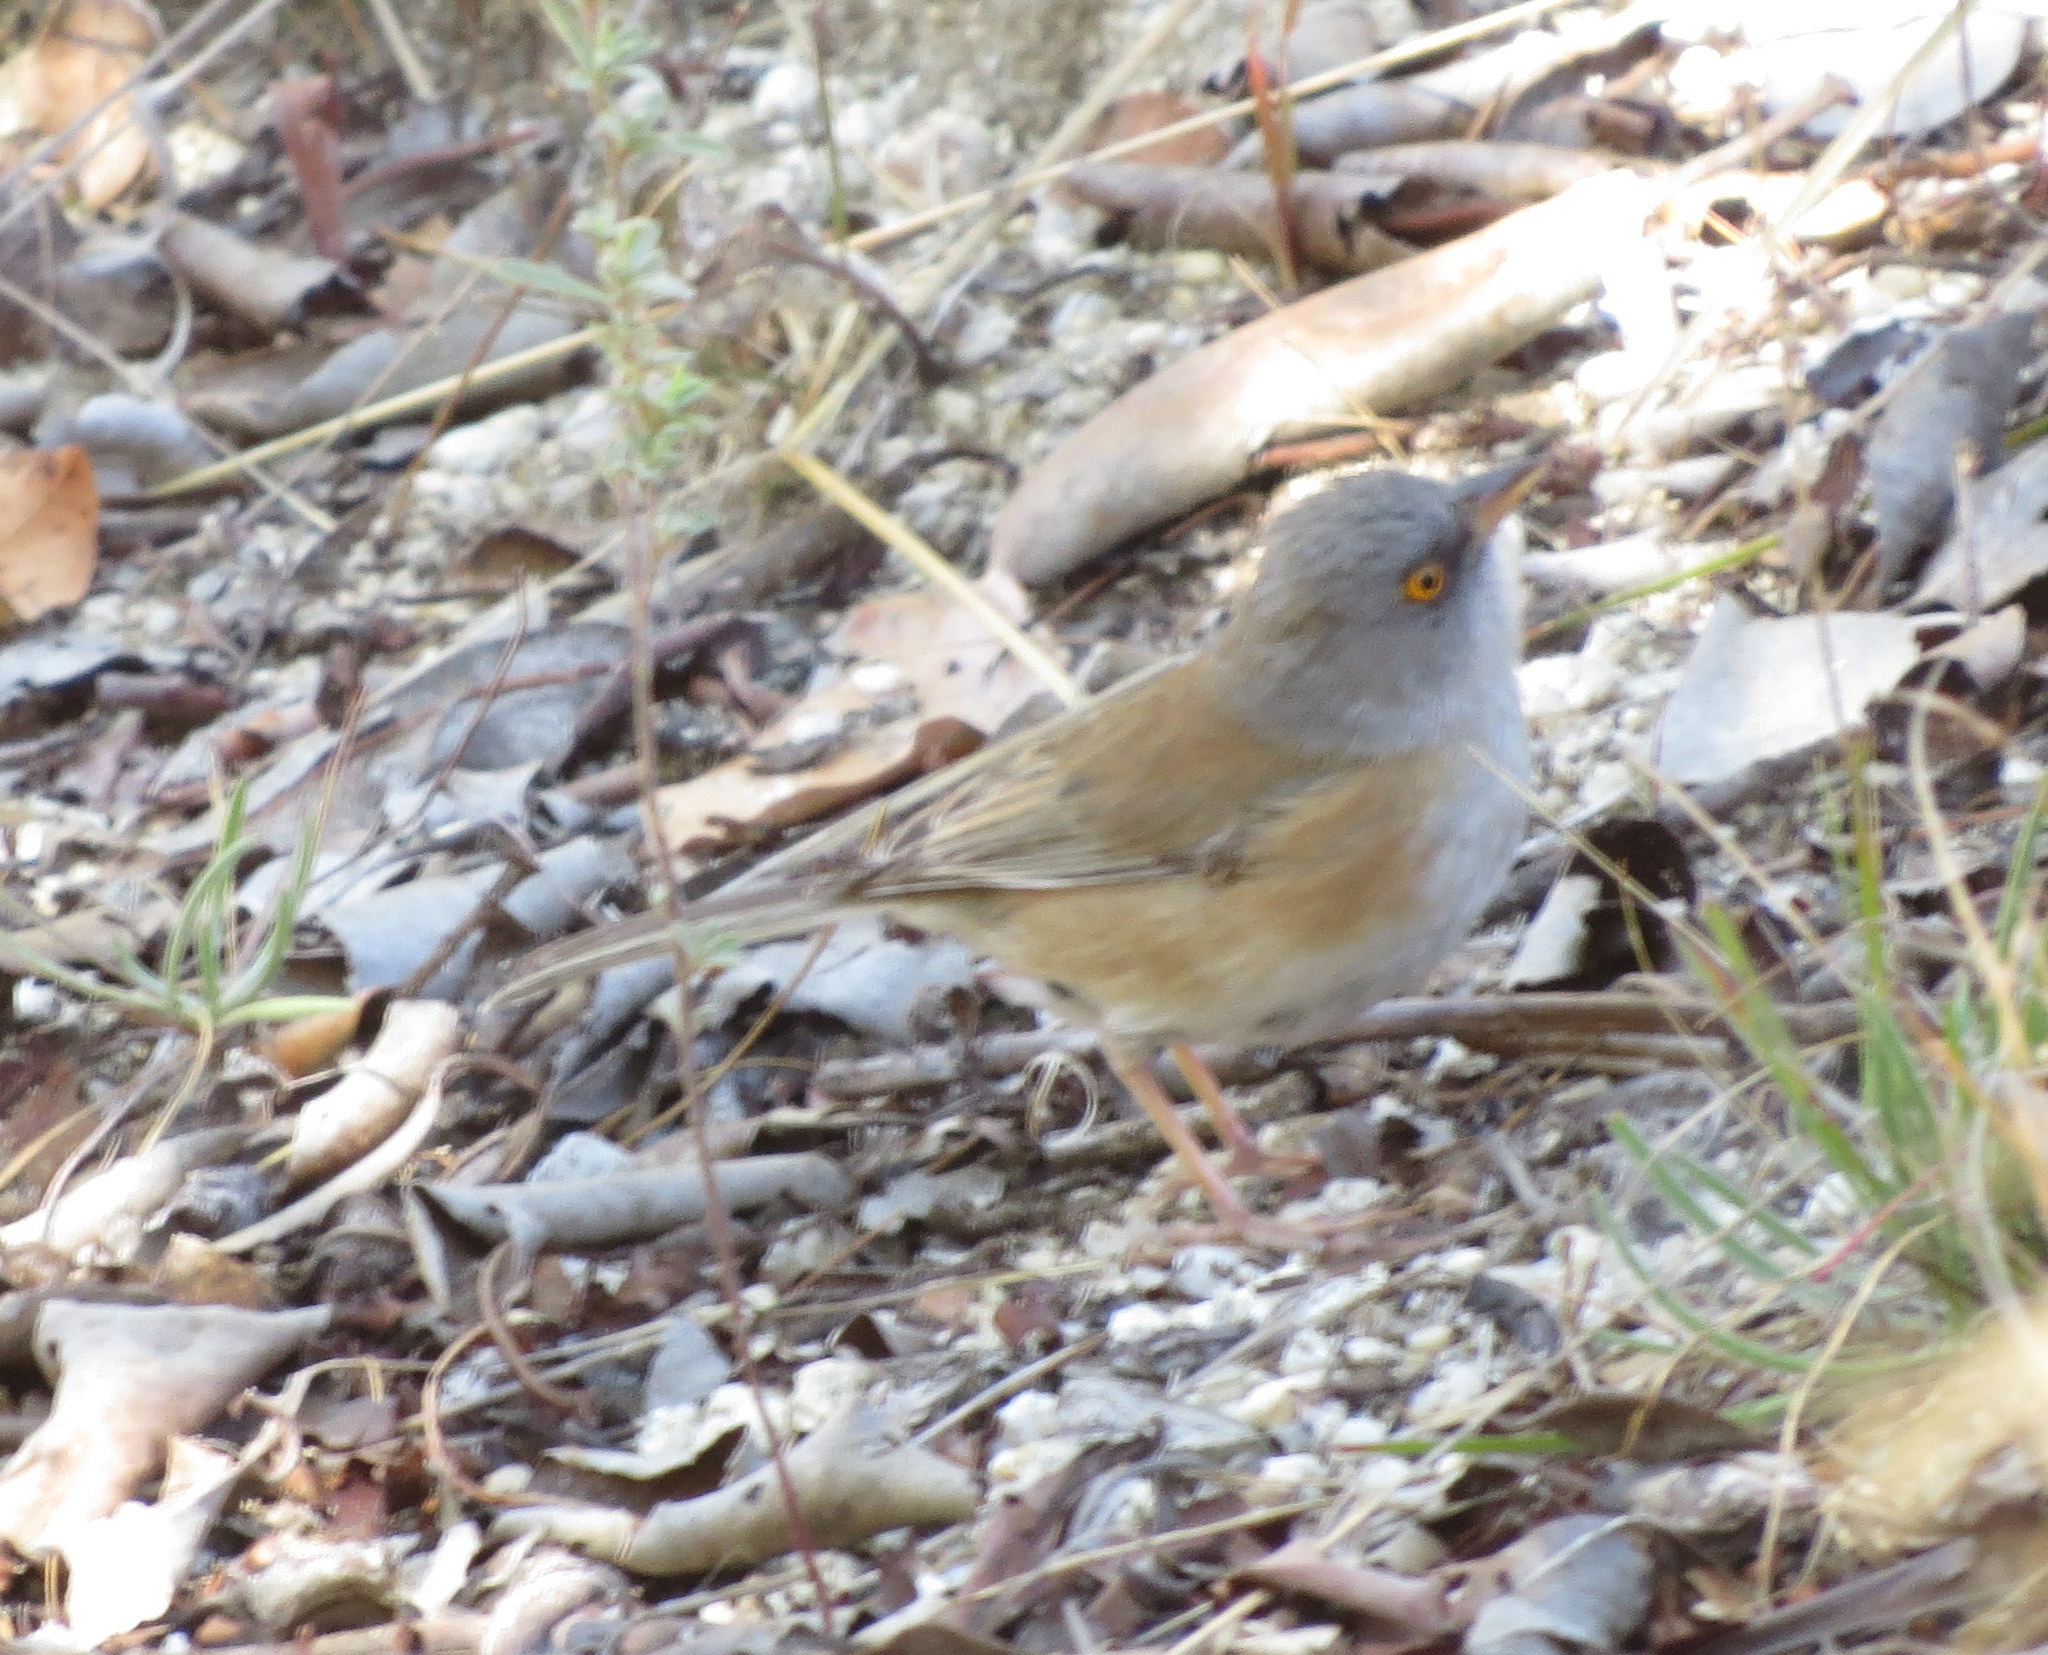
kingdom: Animalia
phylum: Chordata
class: Aves
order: Passeriformes
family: Passerellidae
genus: Junco
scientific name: Junco bairdi
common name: Baird's junco
